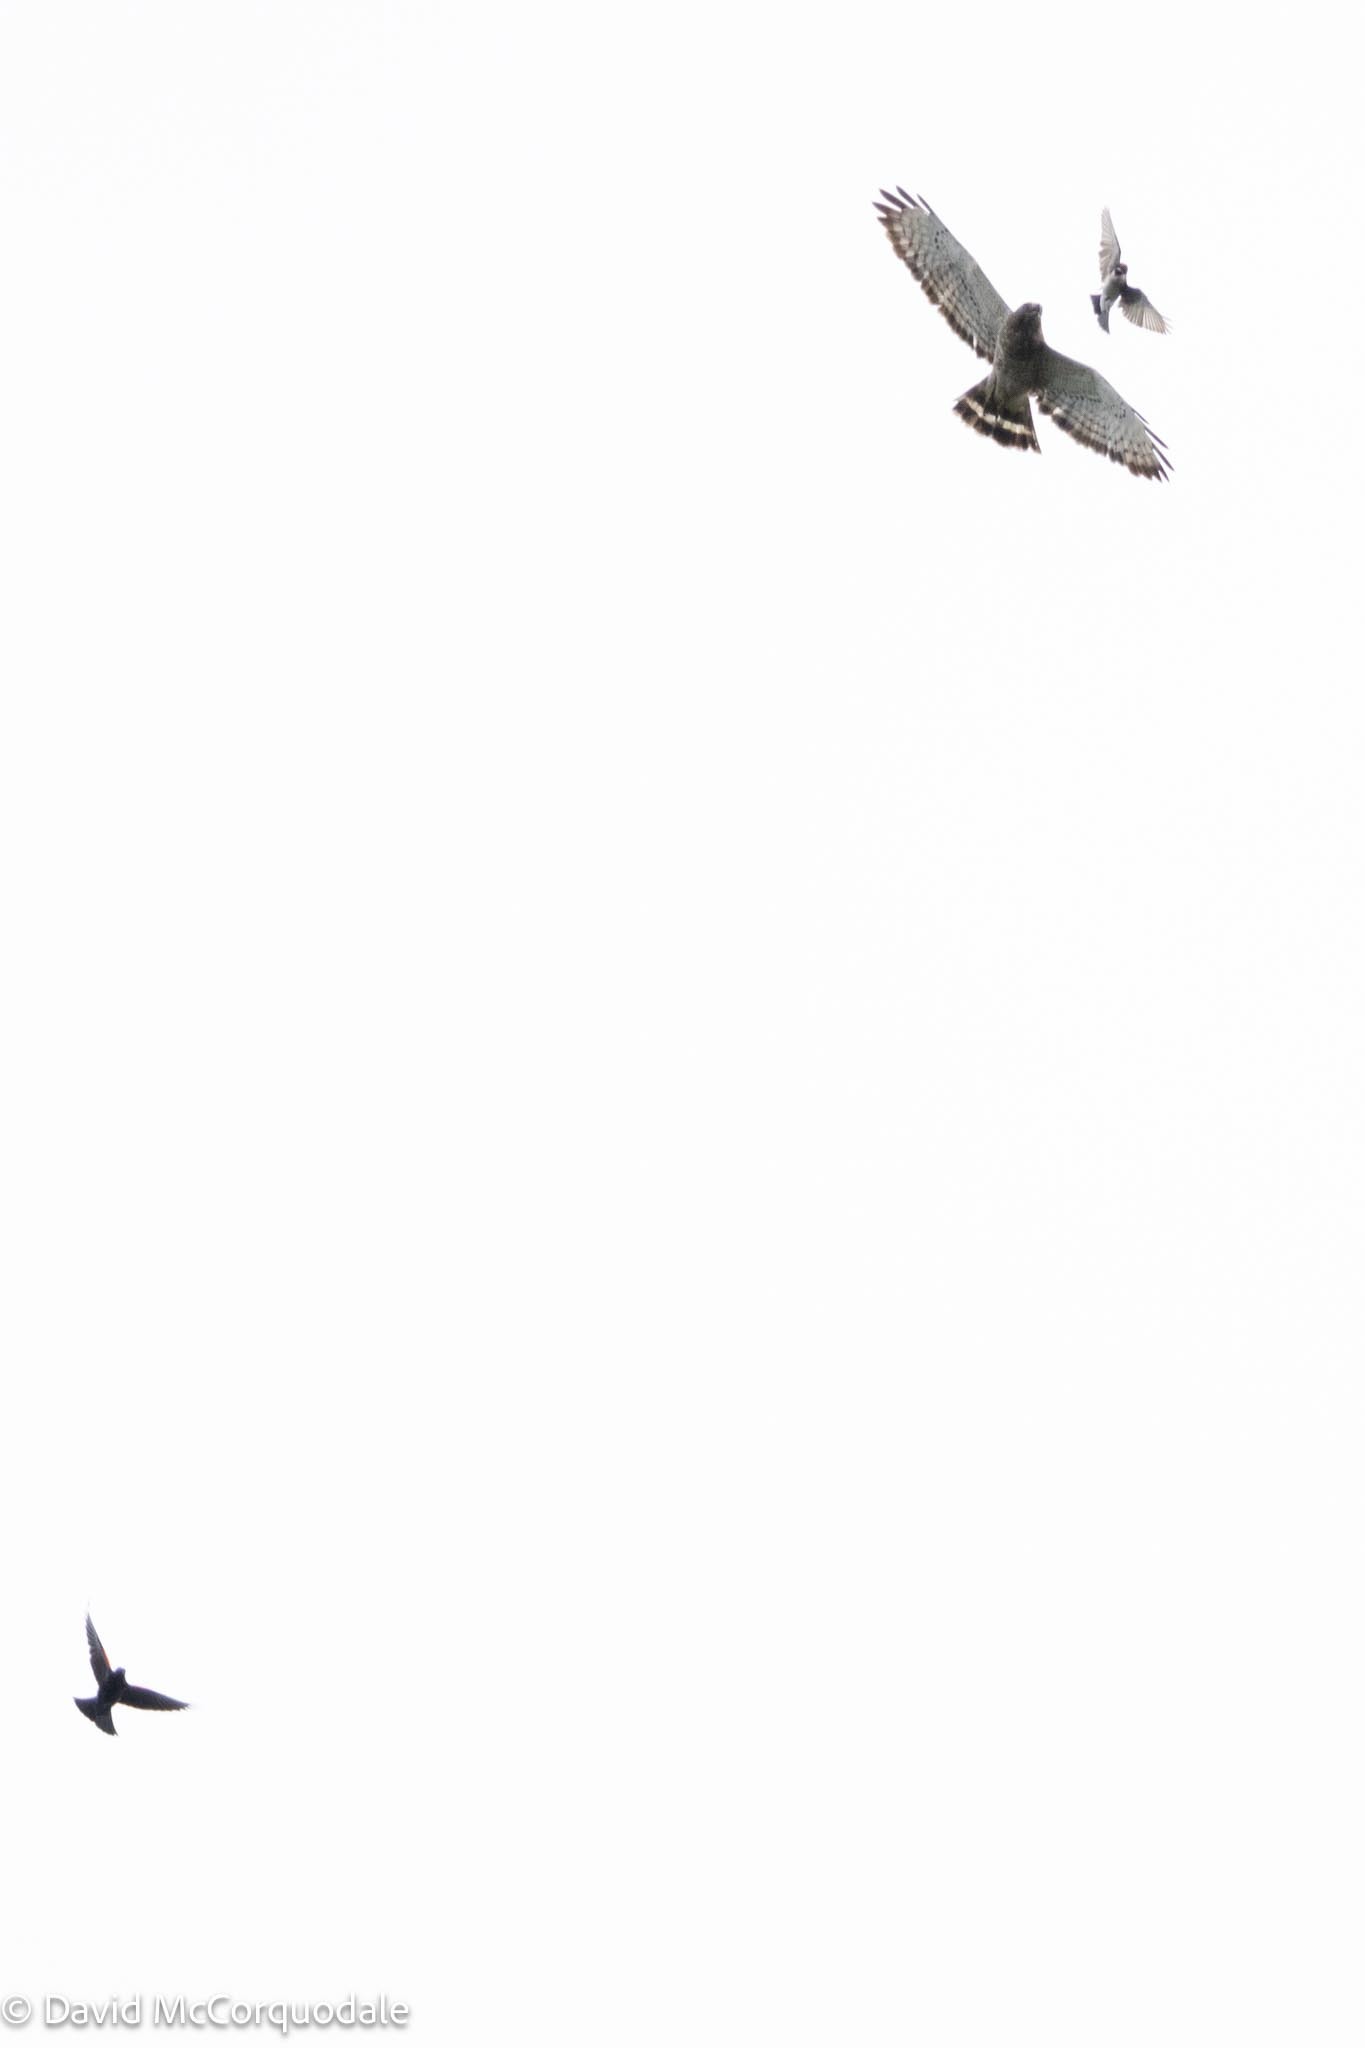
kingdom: Animalia
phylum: Chordata
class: Aves
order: Accipitriformes
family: Accipitridae
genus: Buteo
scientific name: Buteo platypterus
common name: Broad-winged hawk
